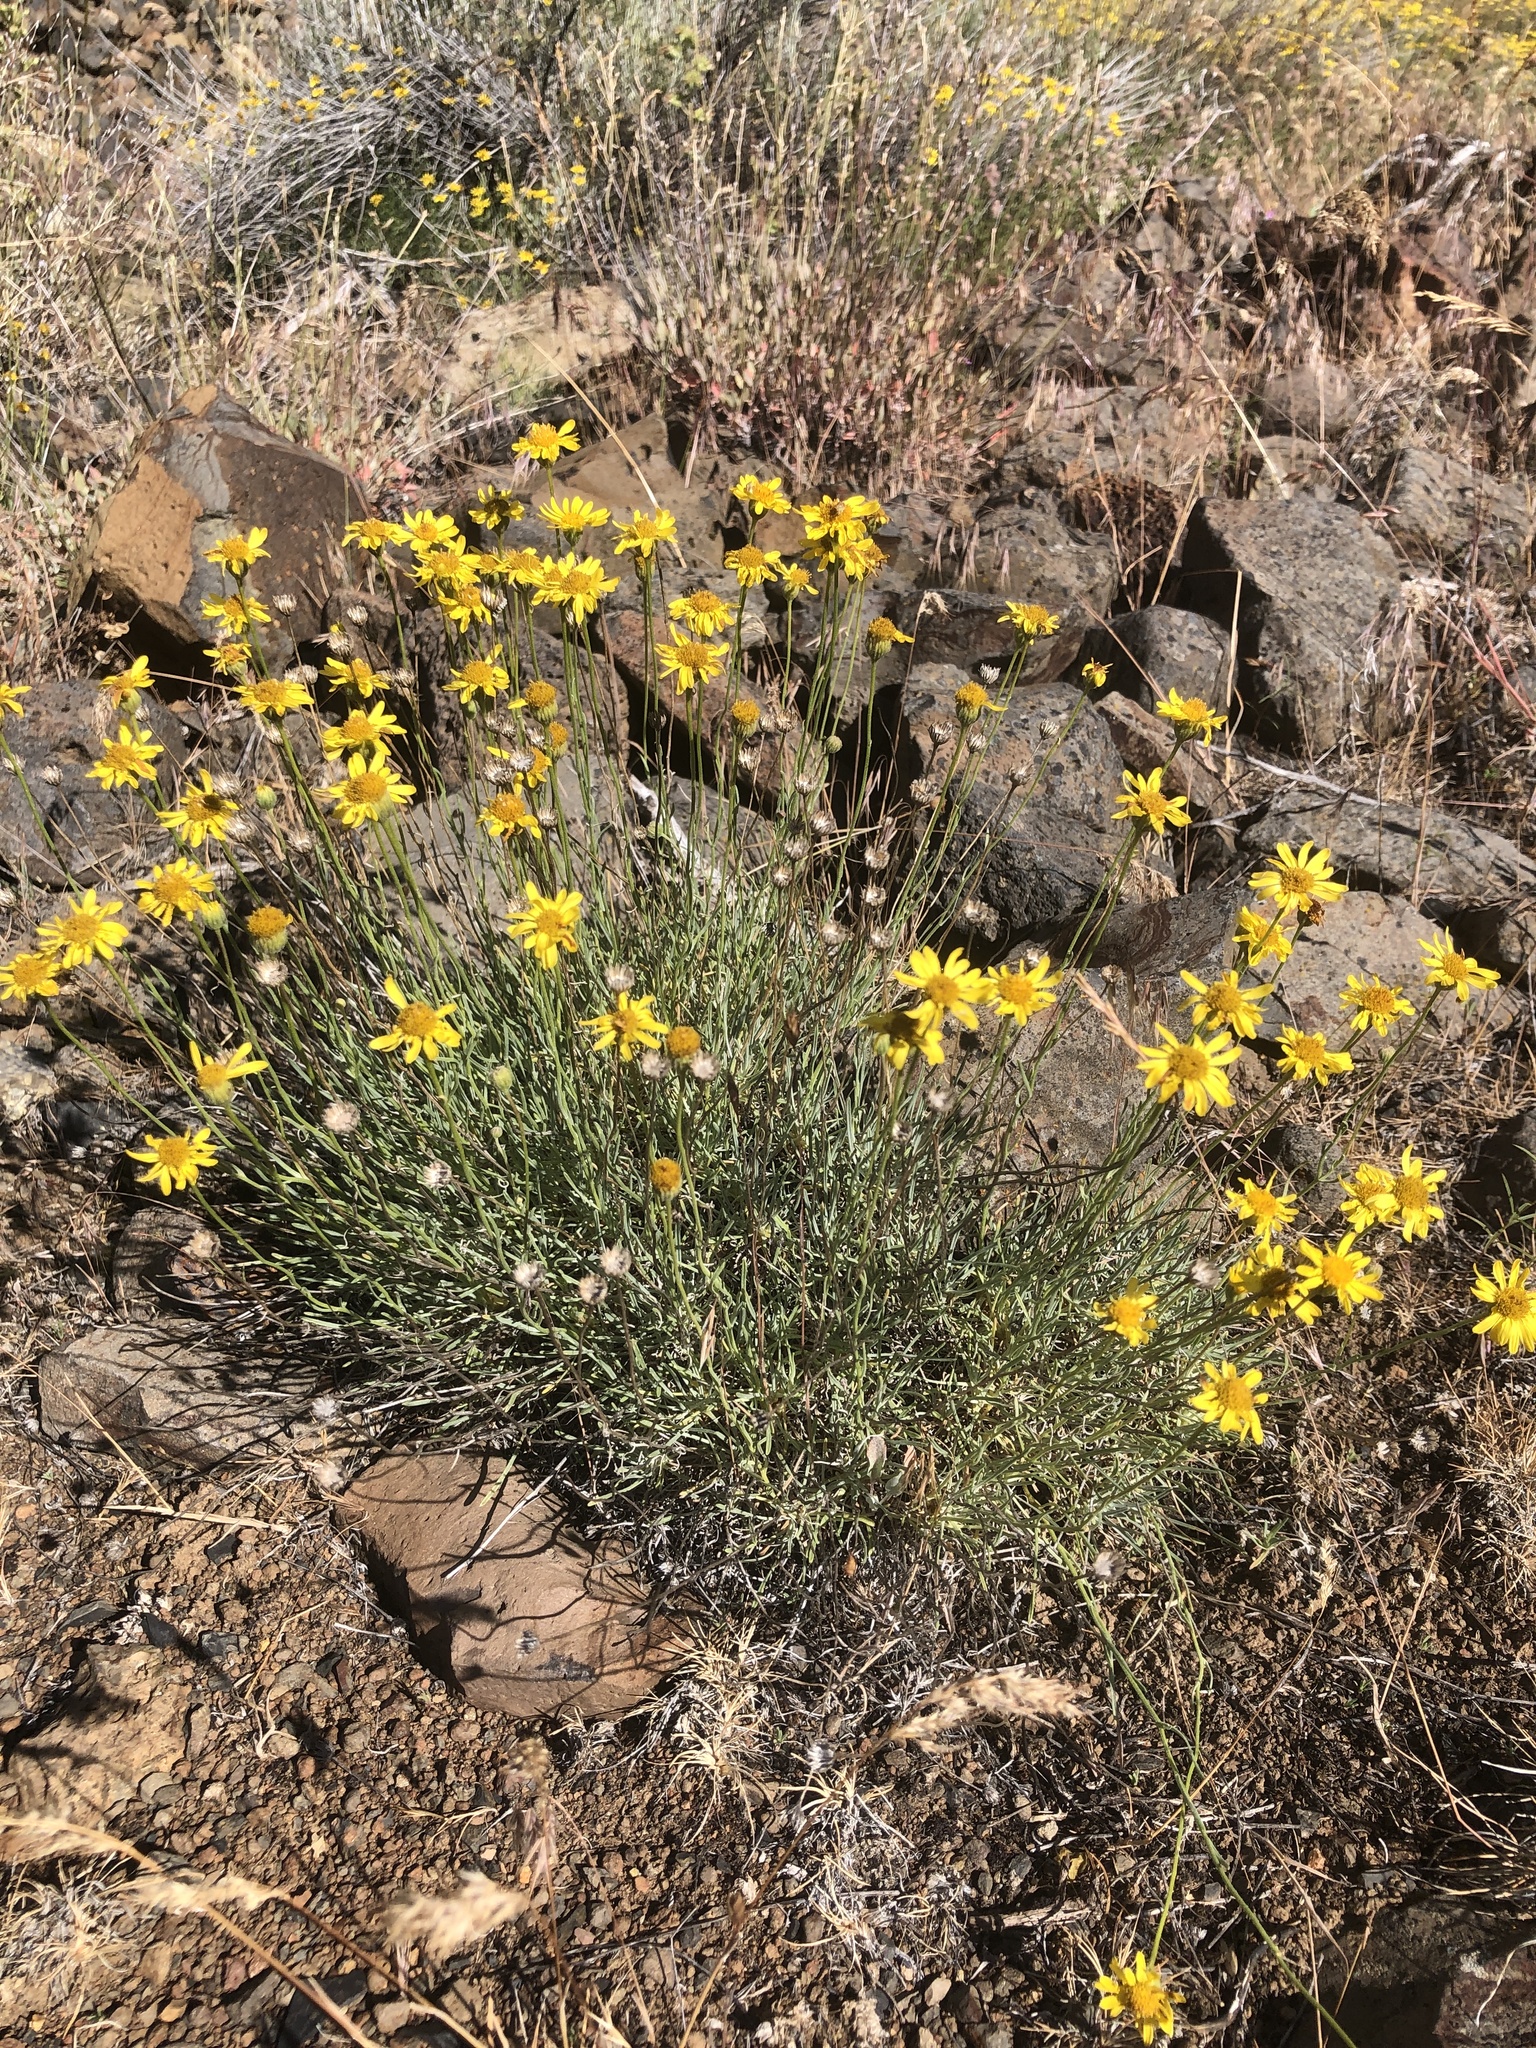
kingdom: Plantae
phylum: Tracheophyta
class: Magnoliopsida
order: Asterales
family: Asteraceae
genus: Erigeron
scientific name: Erigeron linearis
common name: Desert yellow fleabane
